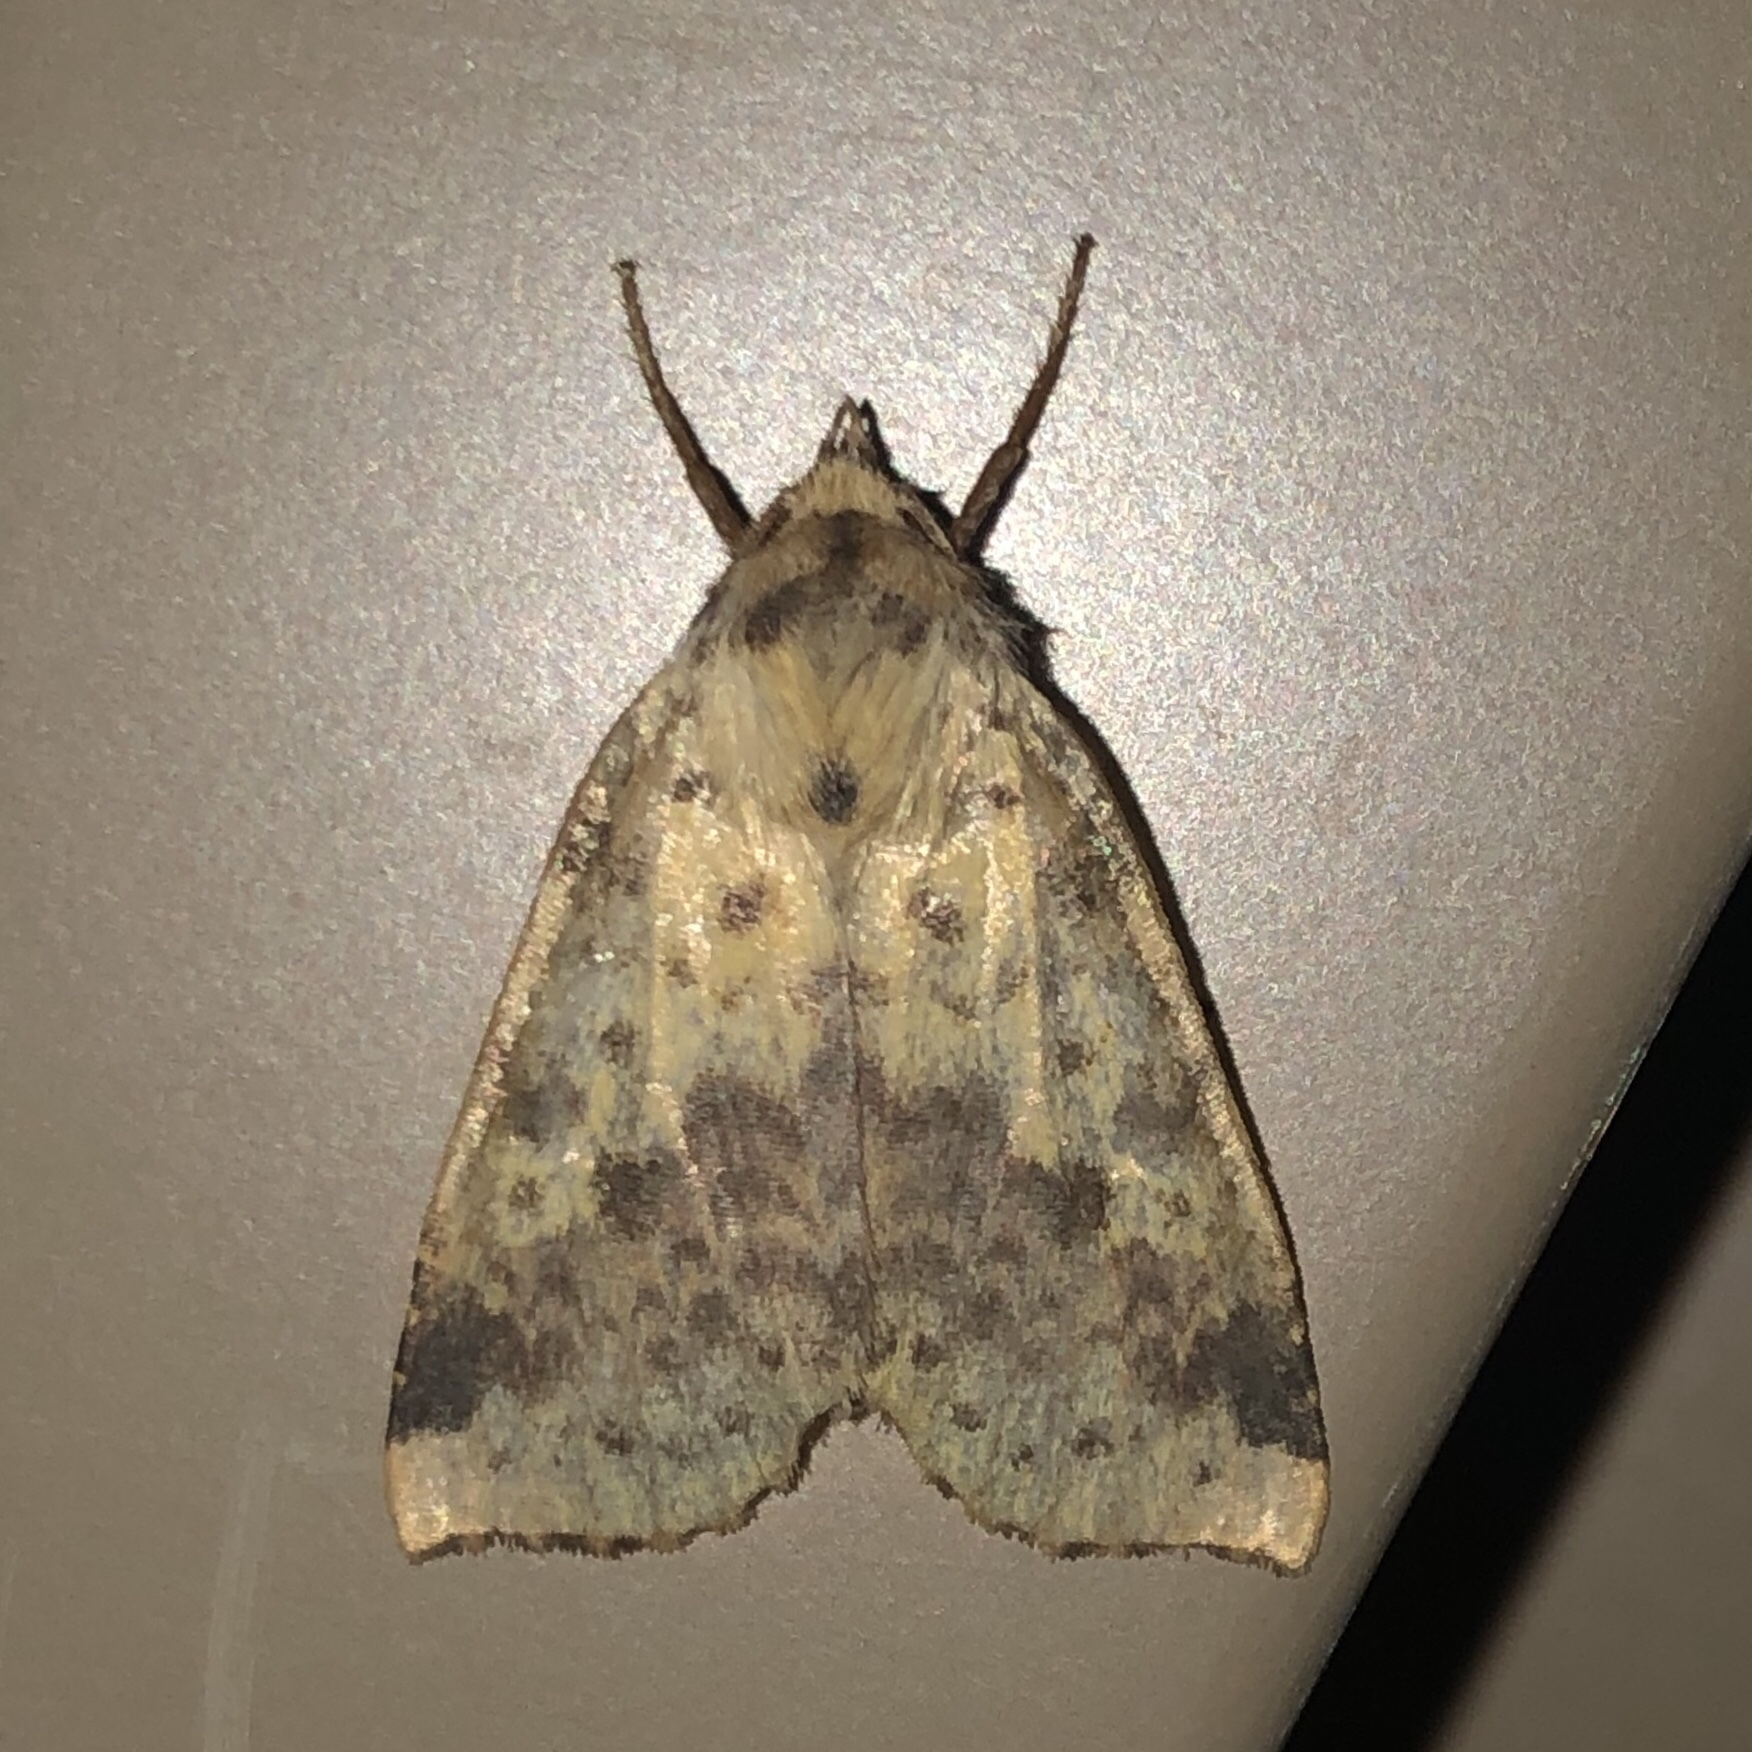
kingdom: Animalia
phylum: Arthropoda
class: Insecta
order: Lepidoptera
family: Noctuidae
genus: Xanthia
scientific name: Xanthia tatago
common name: Pink-banded sallow
